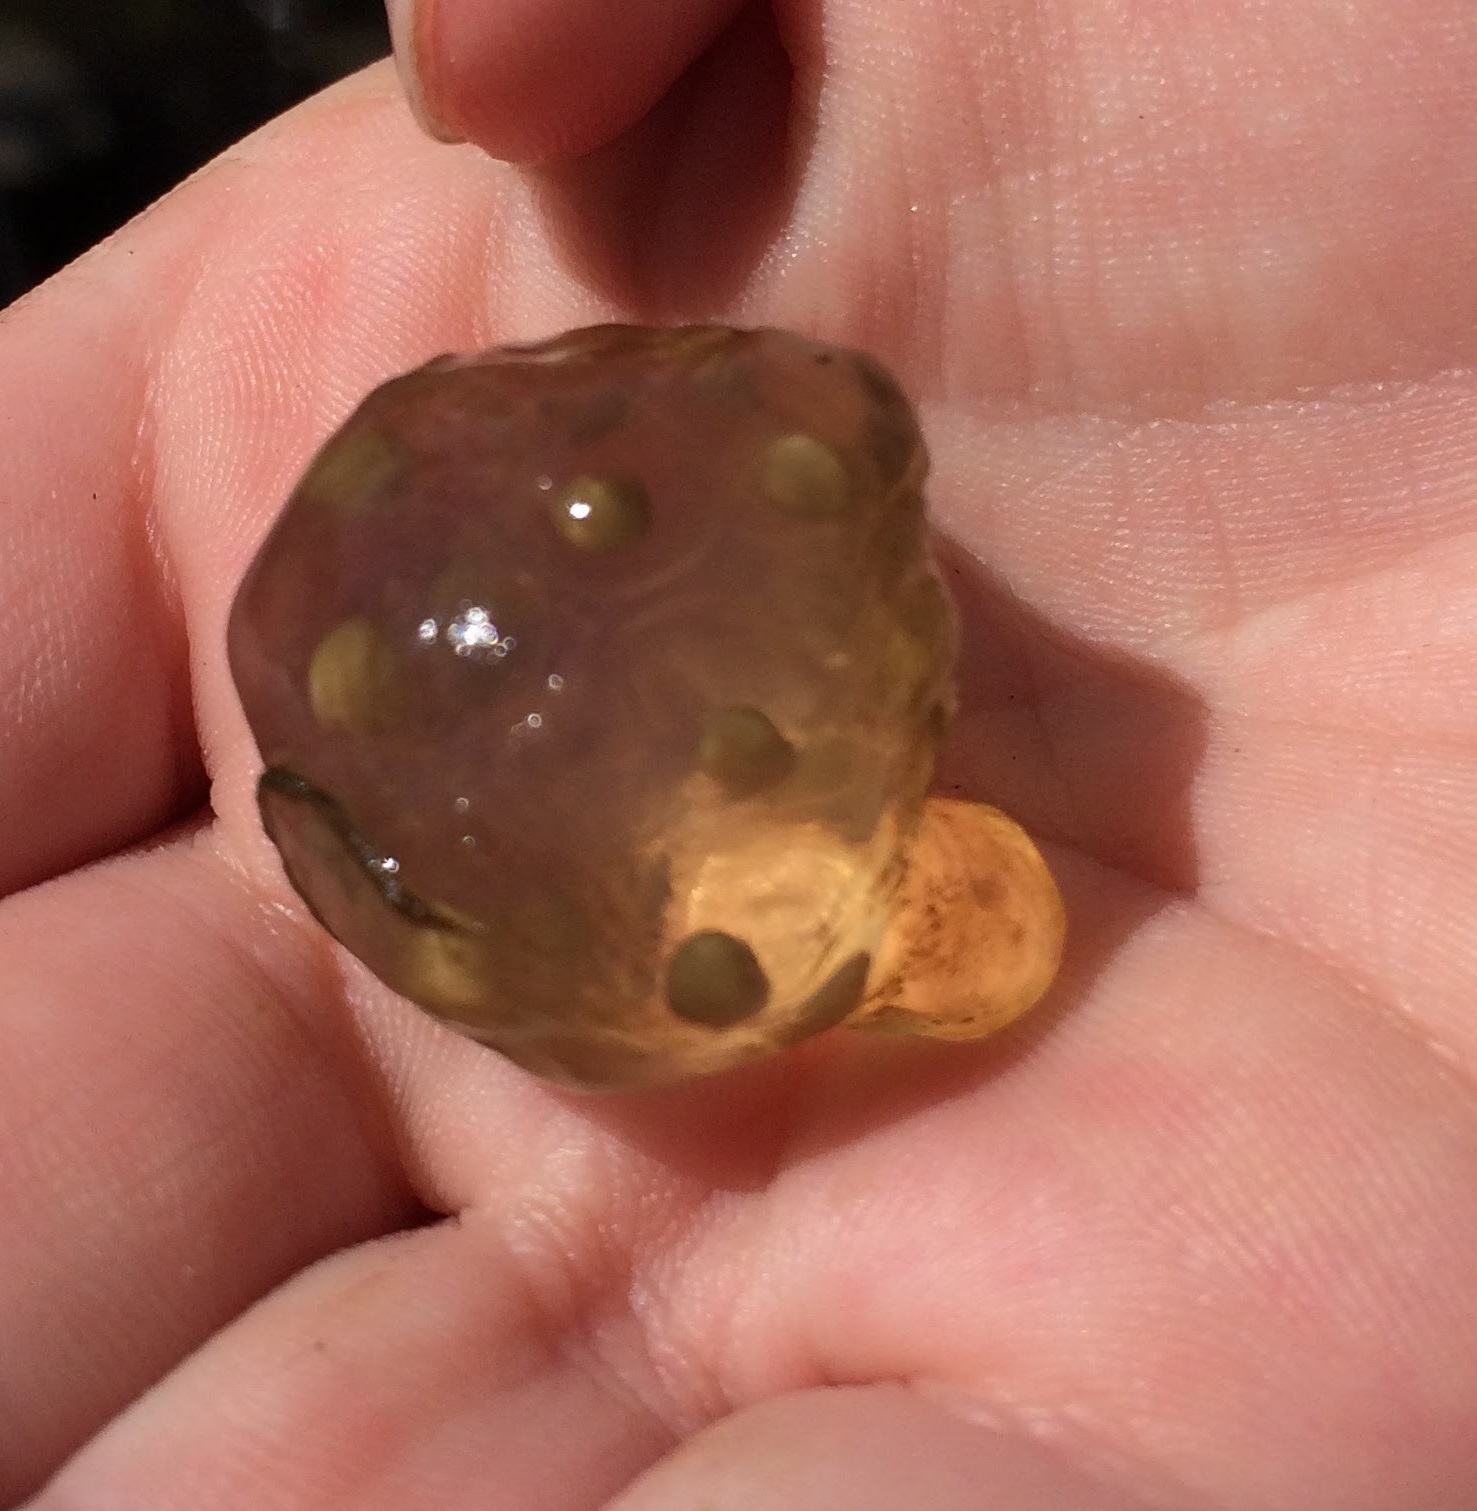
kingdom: Animalia
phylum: Chordata
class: Amphibia
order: Caudata
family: Salamandridae
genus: Taricha
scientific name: Taricha torosa
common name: California newt
